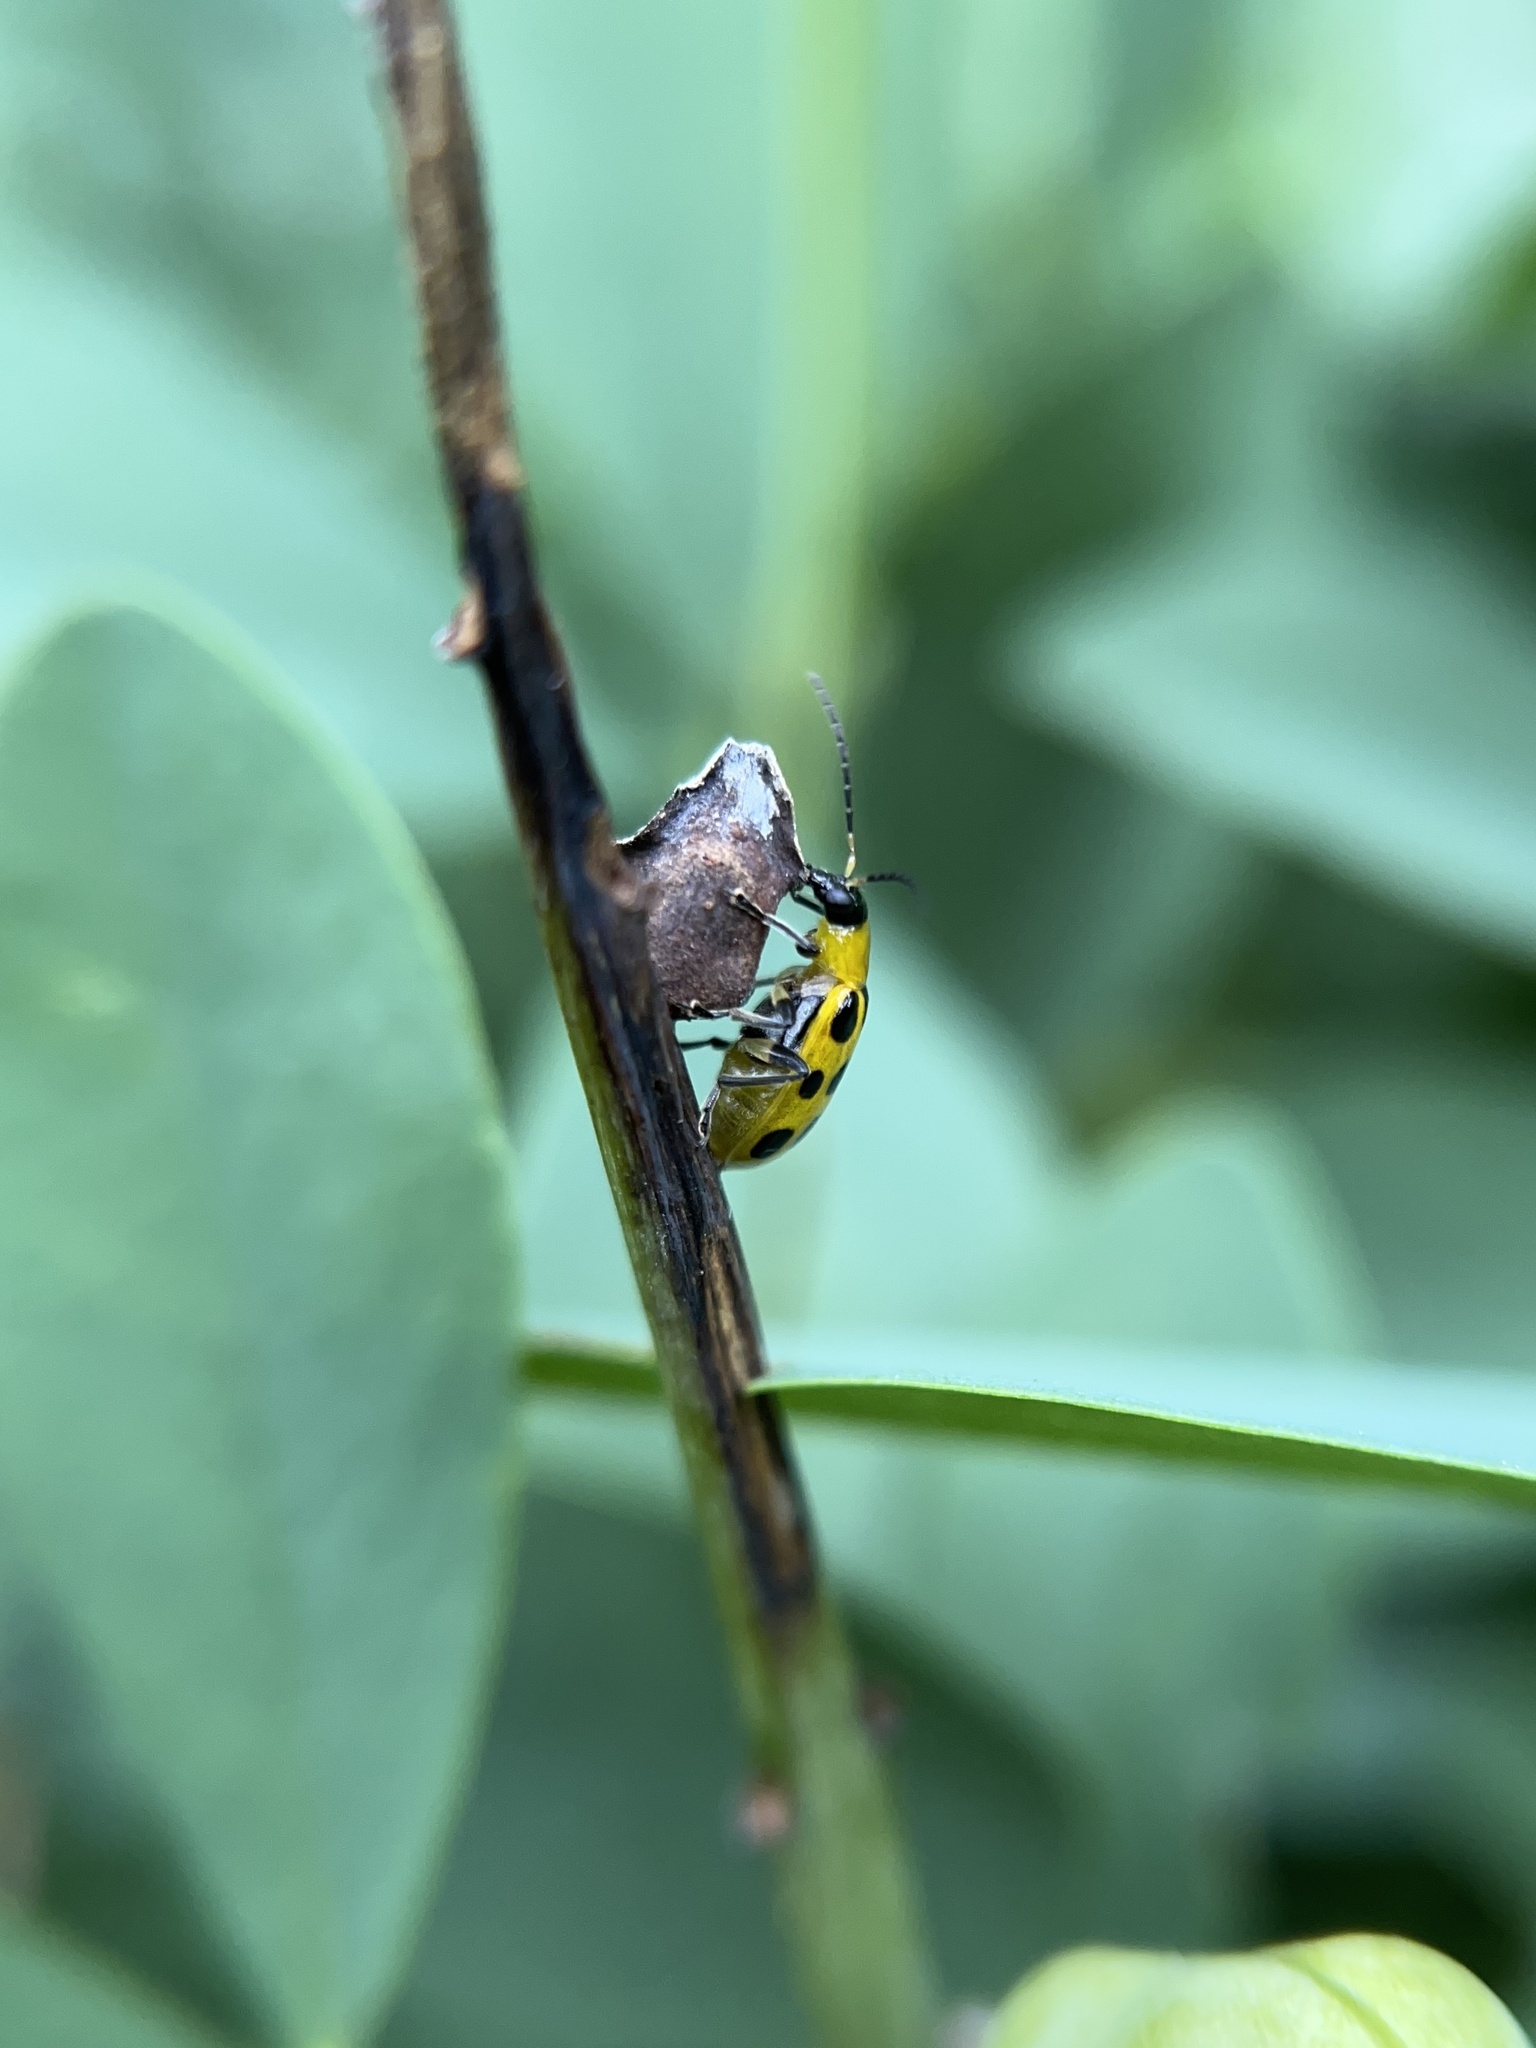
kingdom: Animalia
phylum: Arthropoda
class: Insecta
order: Coleoptera
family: Chrysomelidae
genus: Diabrotica
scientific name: Diabrotica undecimpunctata
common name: Spotted cucumber beetle
